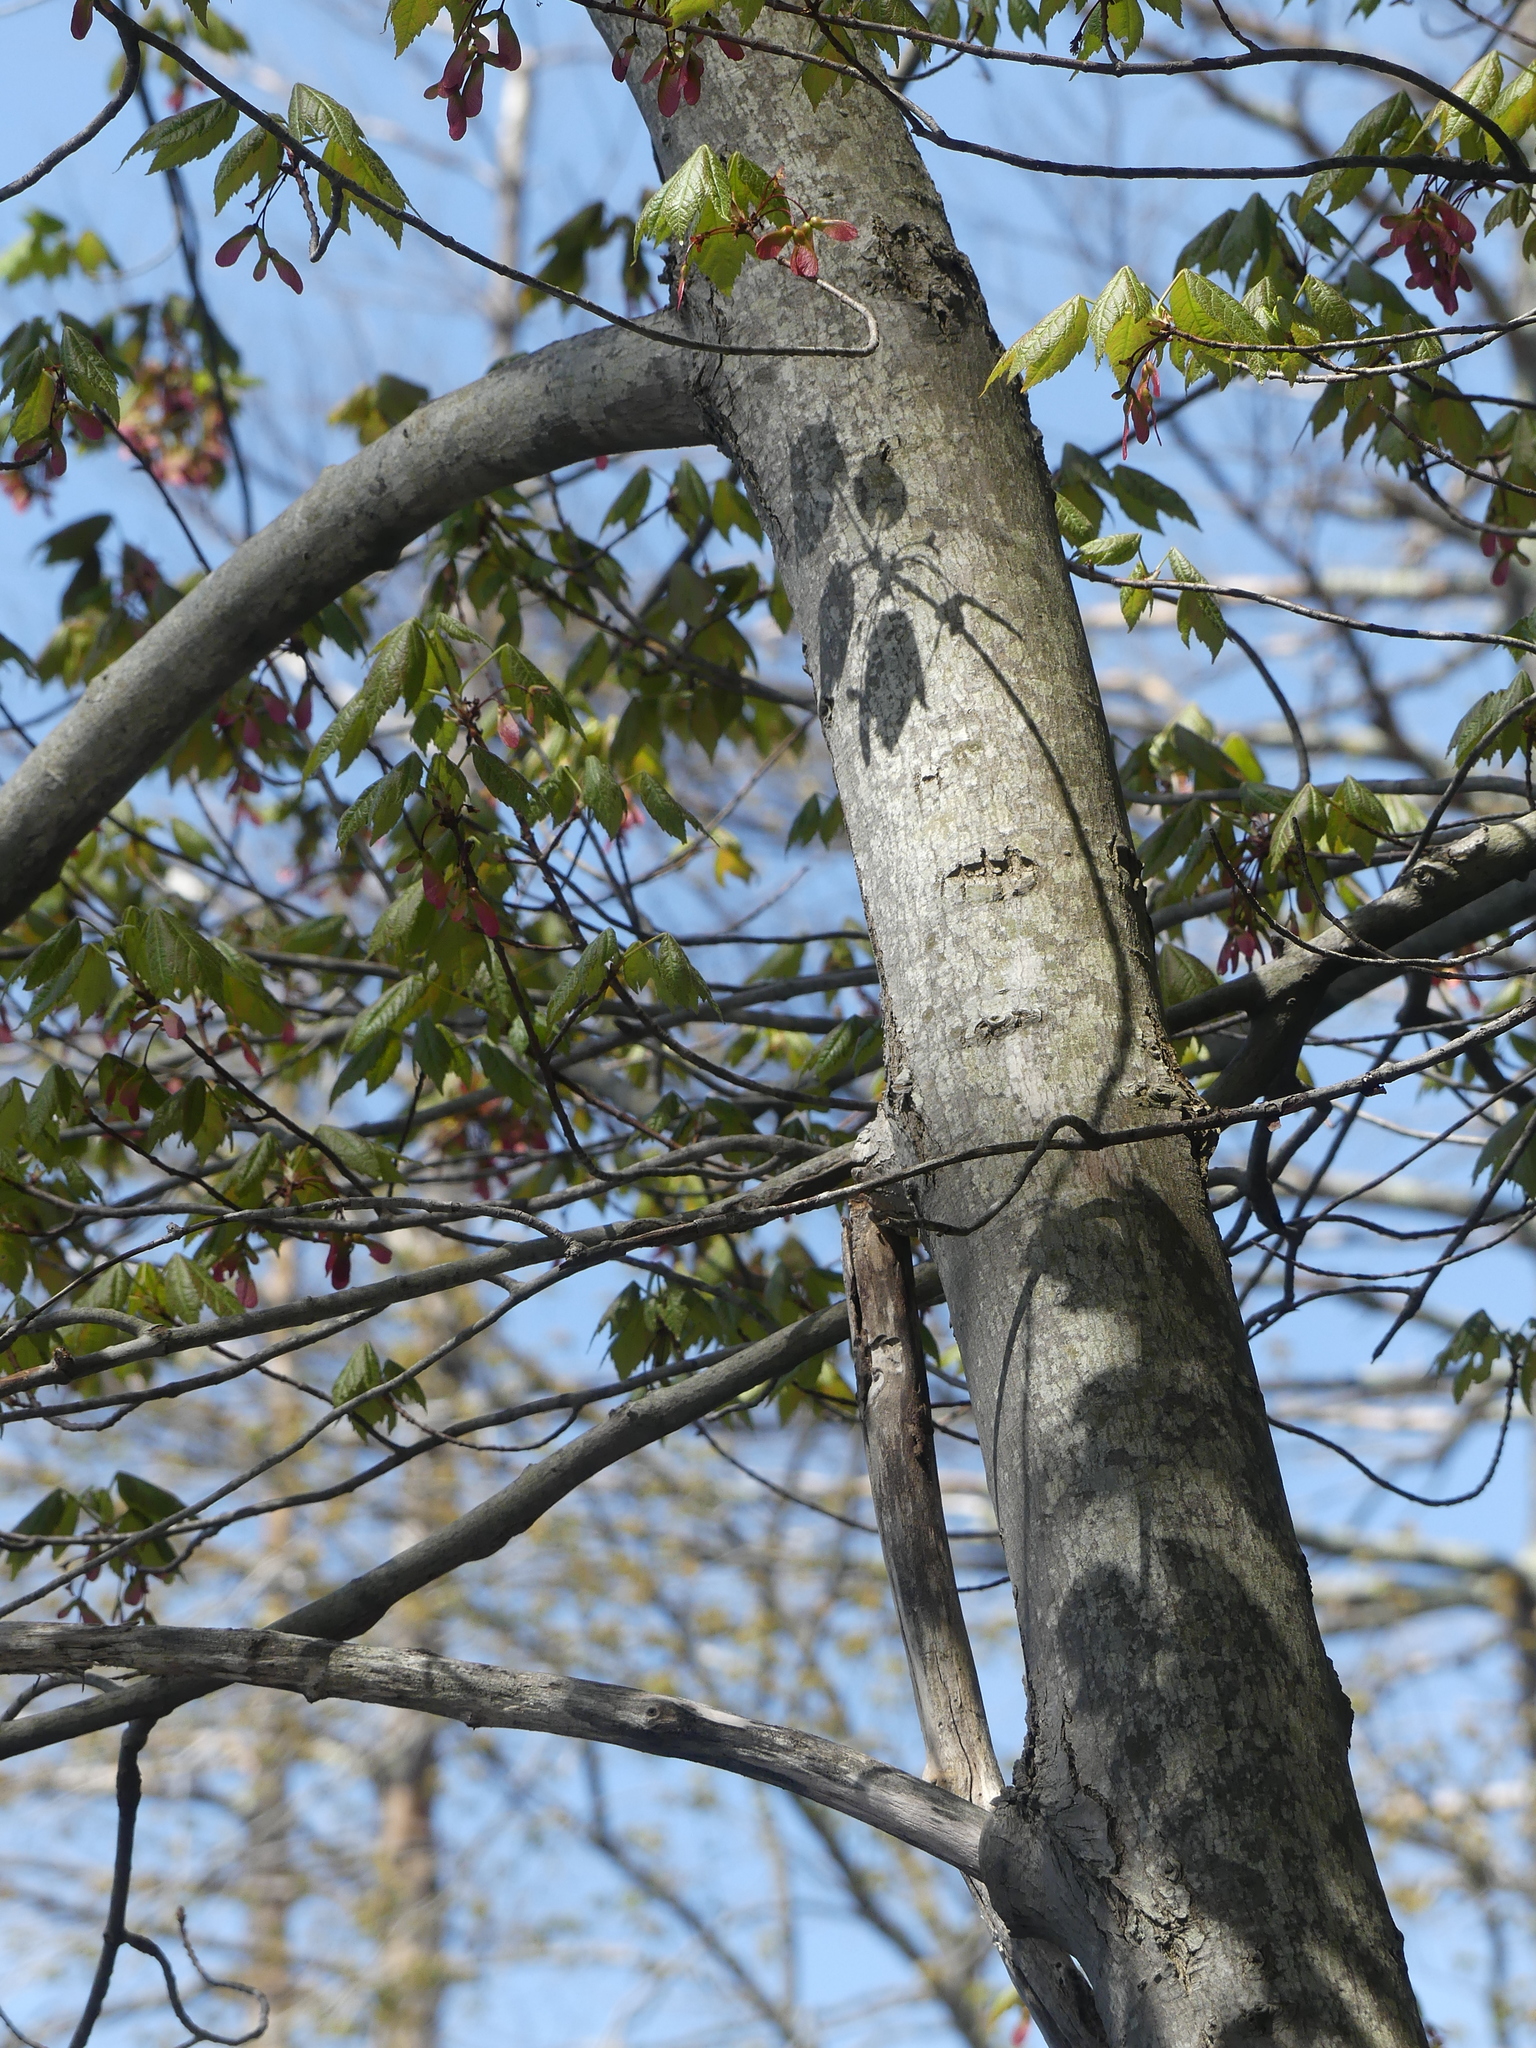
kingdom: Plantae
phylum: Tracheophyta
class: Magnoliopsida
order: Sapindales
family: Sapindaceae
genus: Acer
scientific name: Acer rubrum
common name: Red maple
